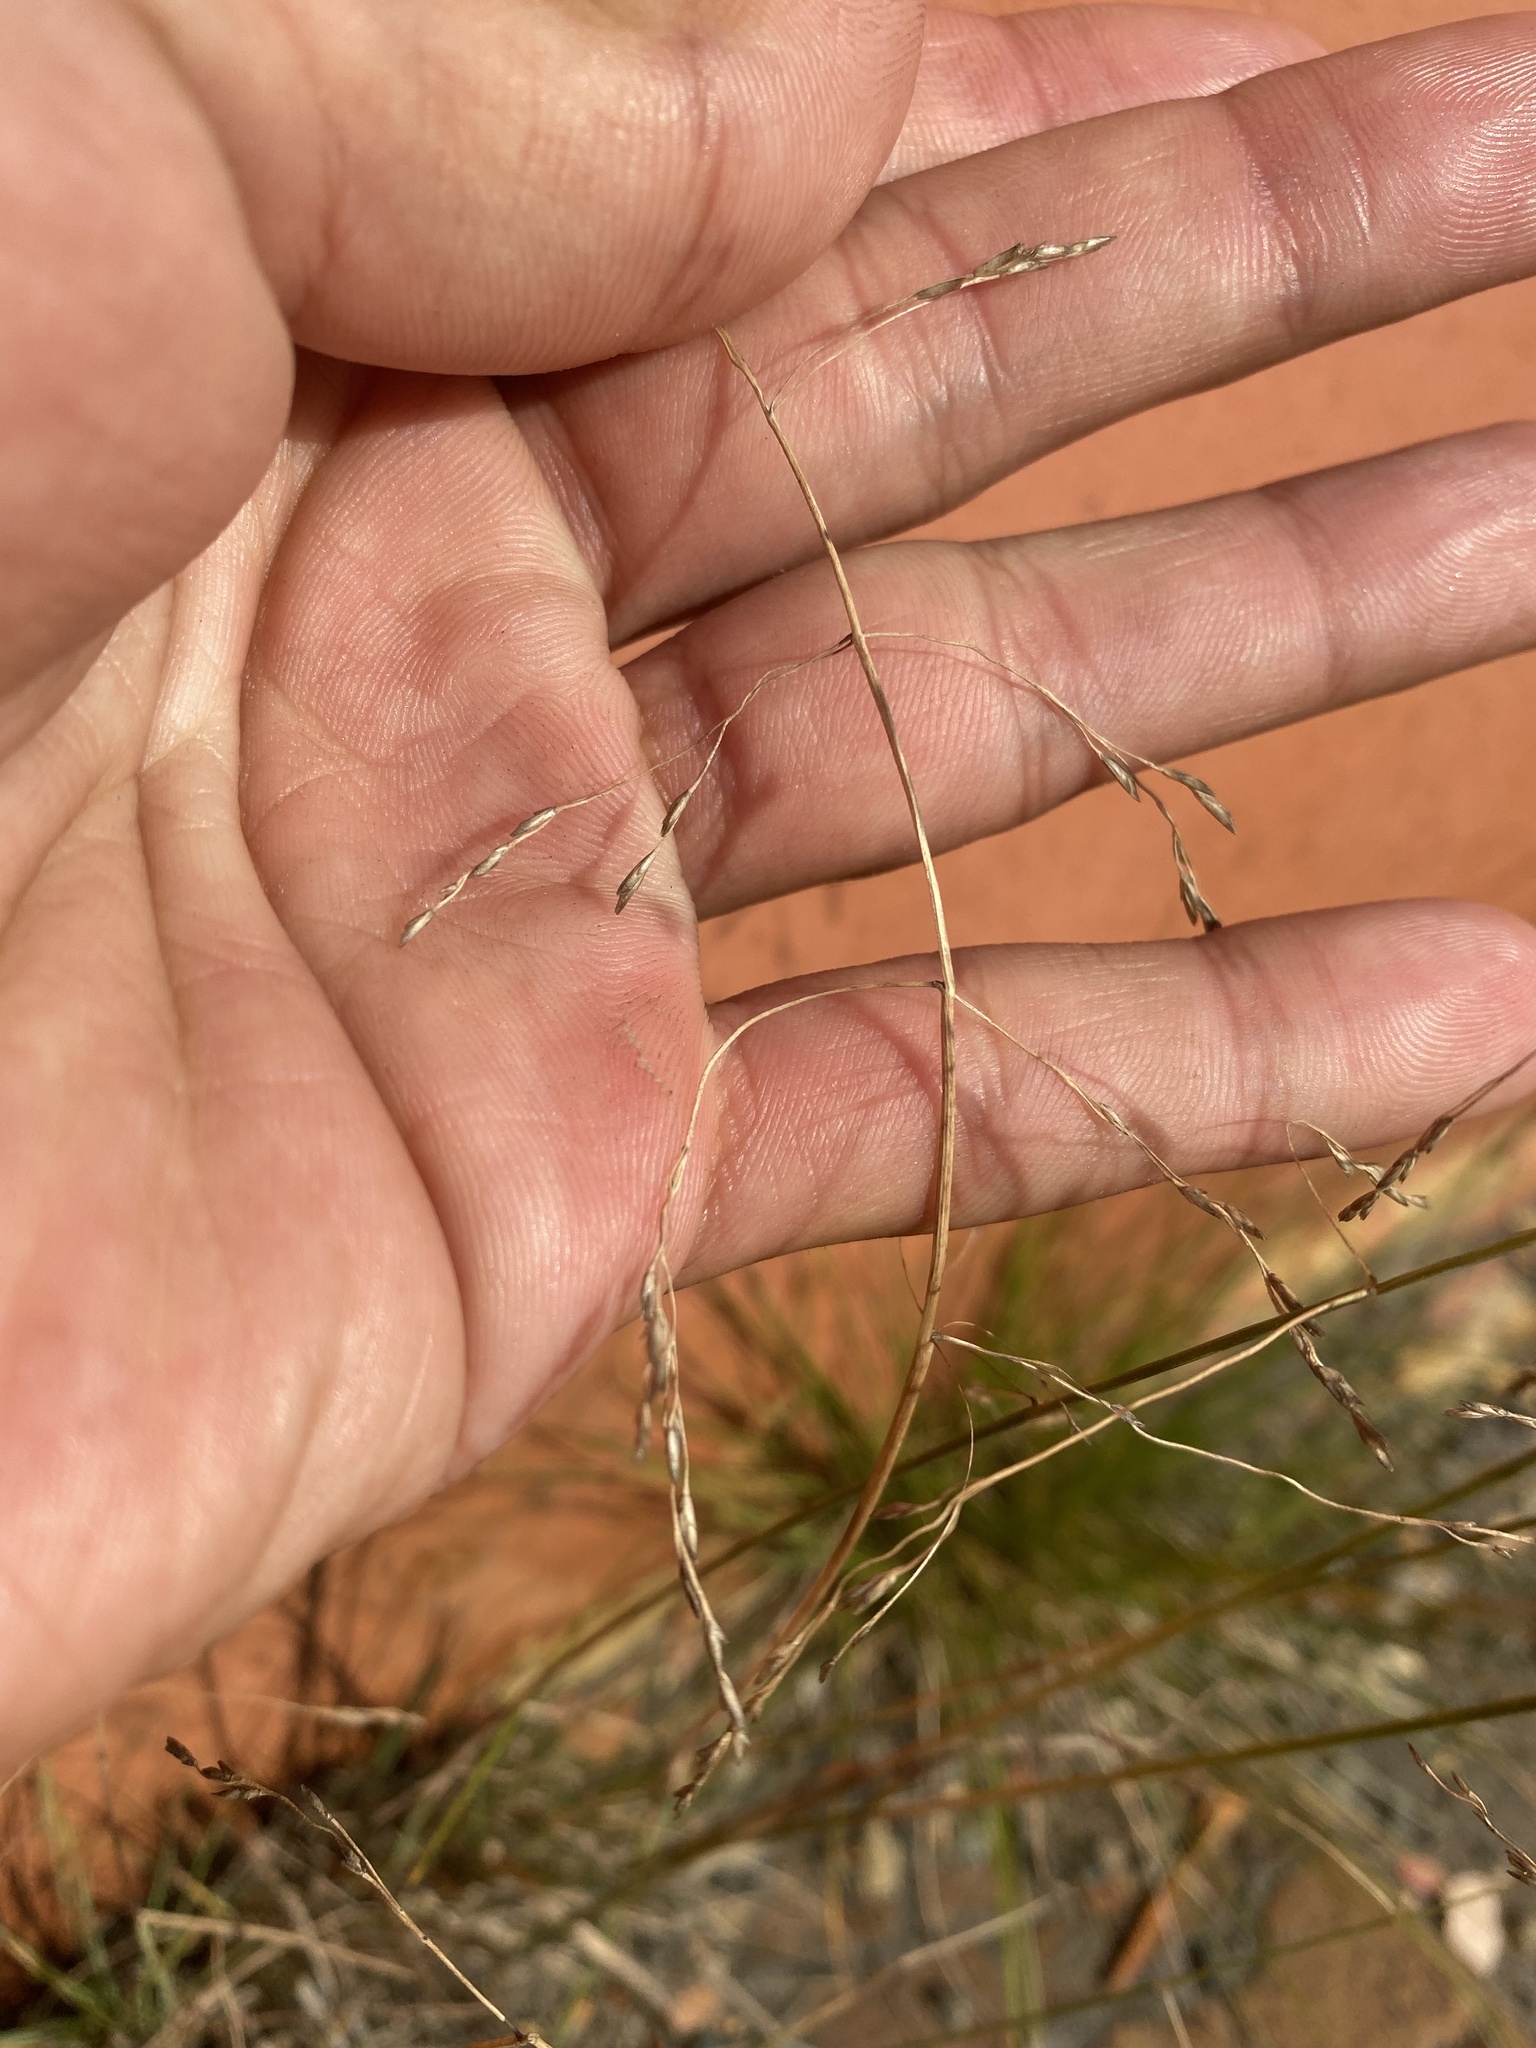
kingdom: Plantae
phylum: Tracheophyta
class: Liliopsida
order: Poales
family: Poaceae
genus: Puccinellia
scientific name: Puccinellia sibirica
